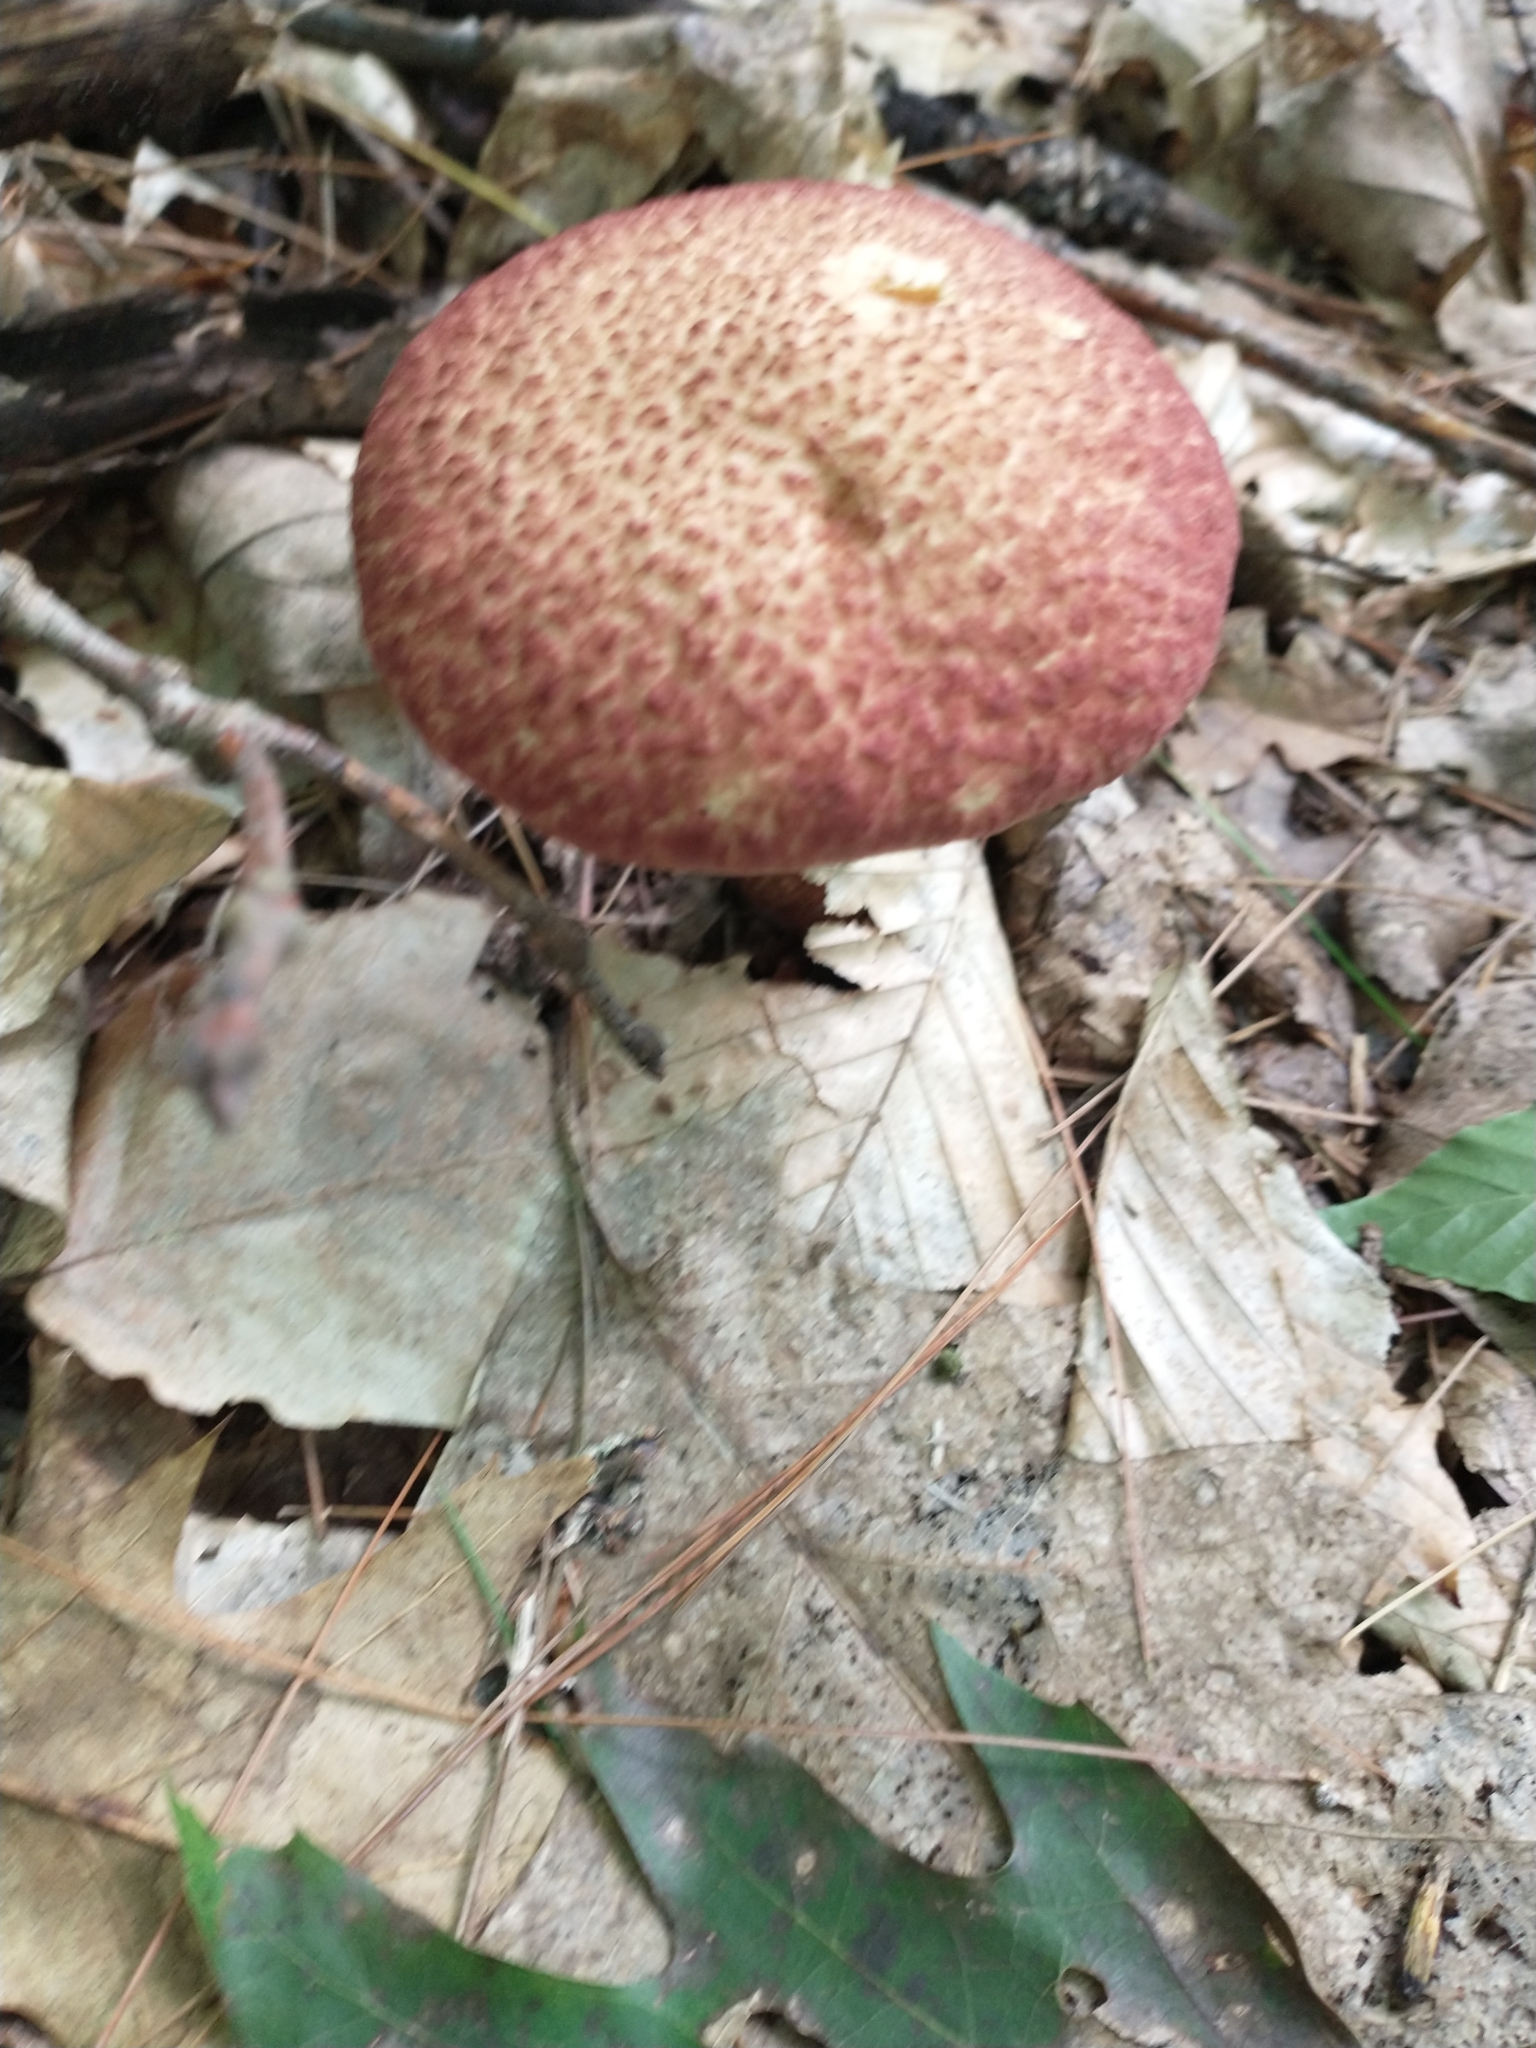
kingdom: Fungi
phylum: Basidiomycota
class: Agaricomycetes
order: Boletales
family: Suillaceae
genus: Suillus
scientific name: Suillus spraguei
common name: Painted suillus
